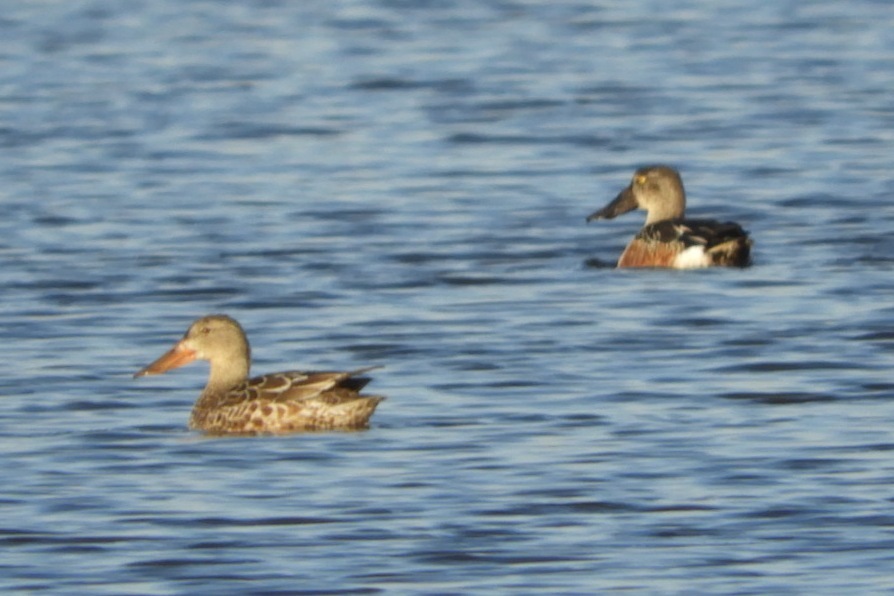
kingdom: Animalia
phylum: Chordata
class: Aves
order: Anseriformes
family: Anatidae
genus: Spatula
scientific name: Spatula clypeata
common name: Northern shoveler
